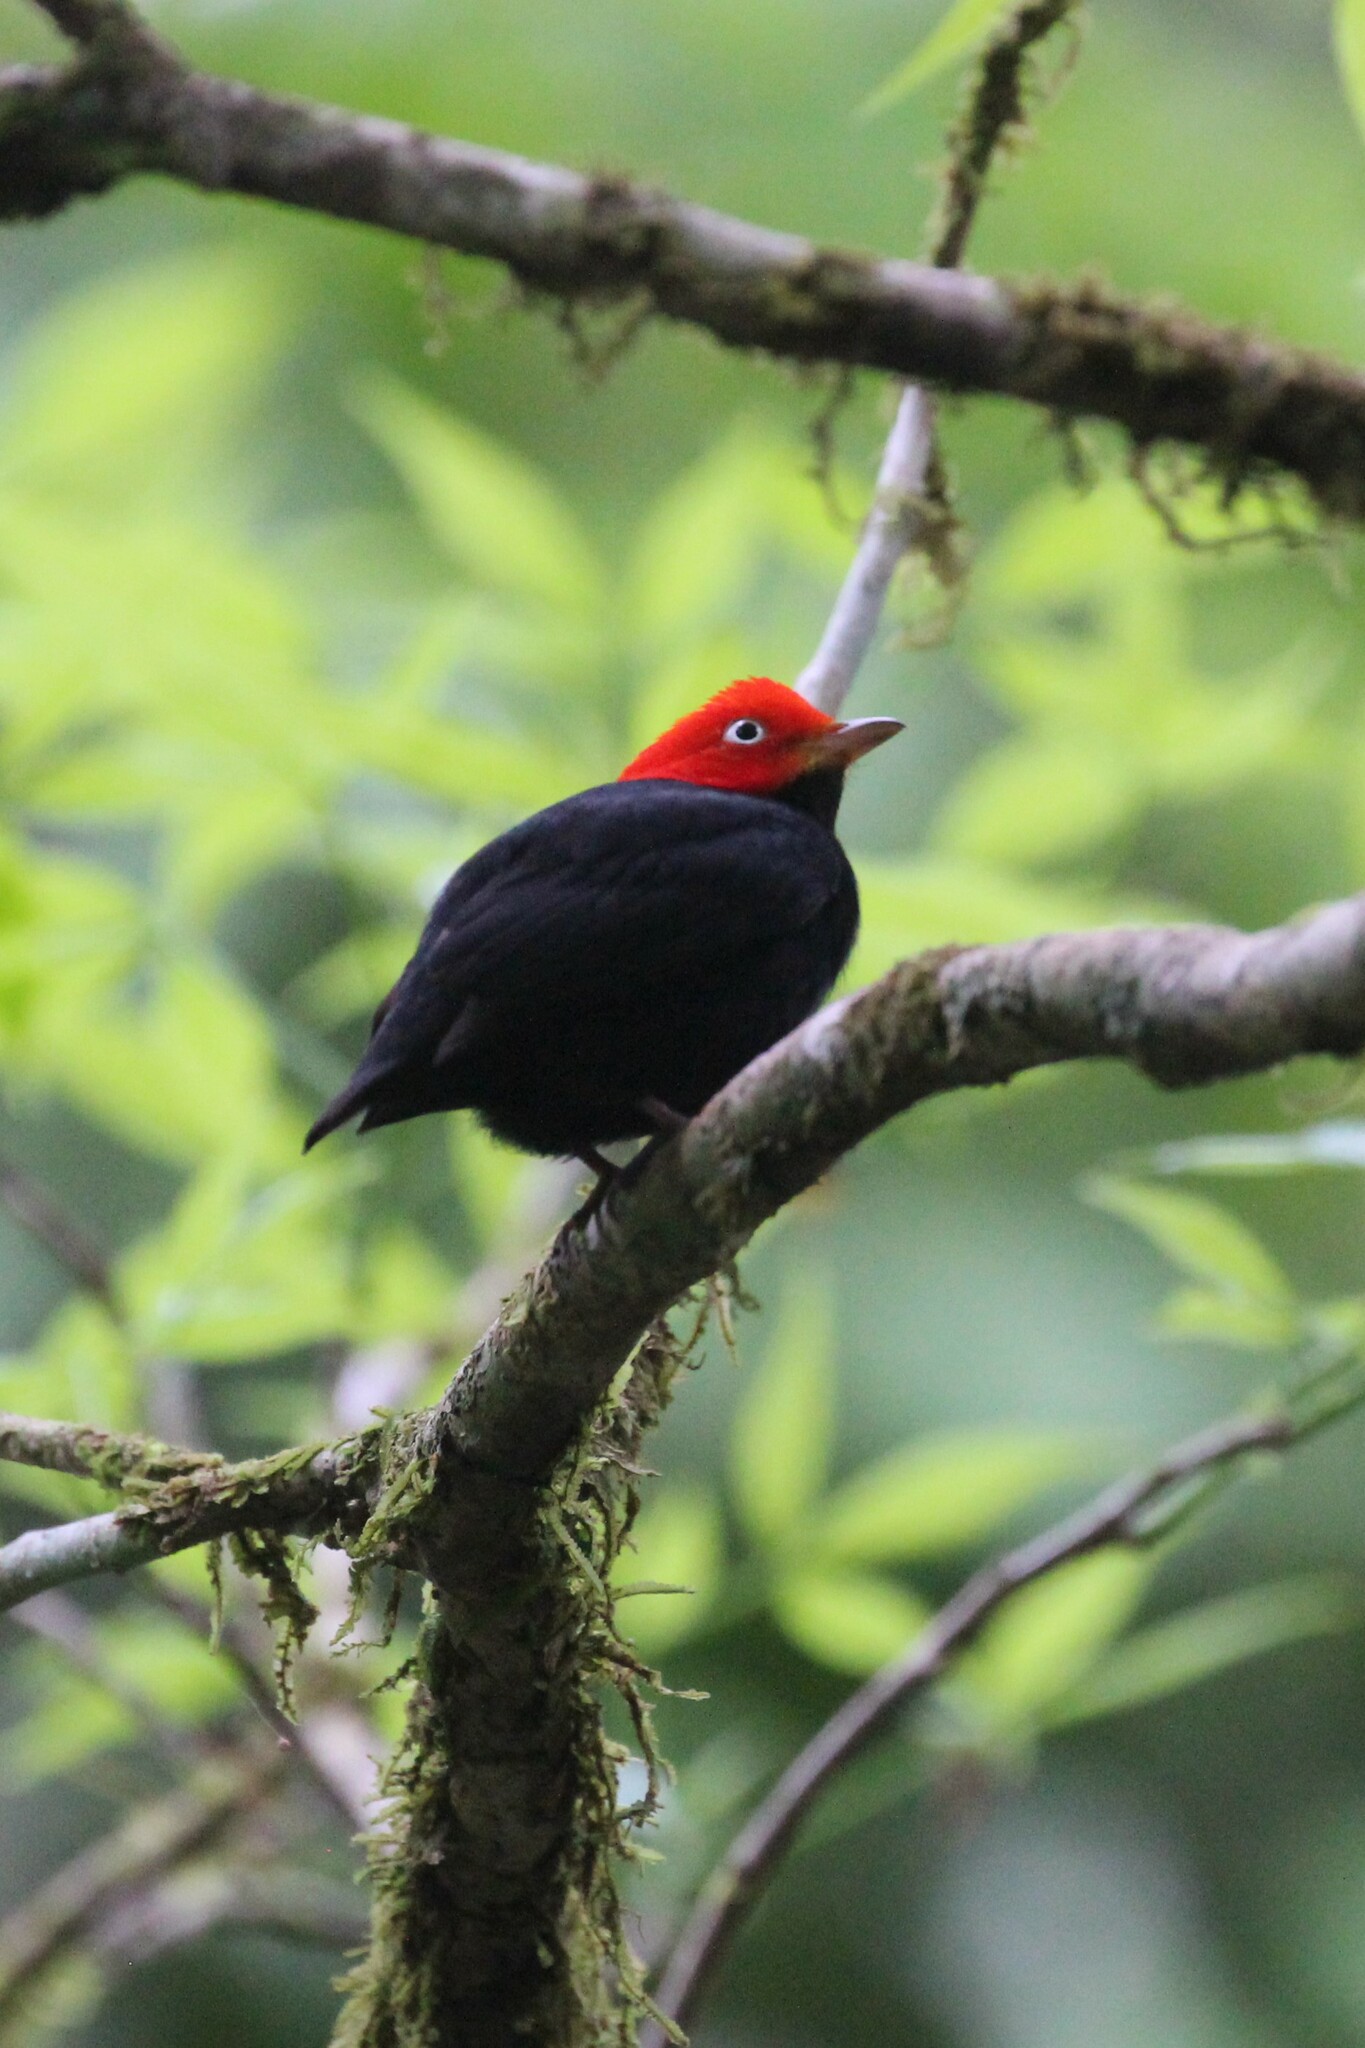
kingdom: Animalia
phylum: Chordata
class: Aves
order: Passeriformes
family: Pipridae
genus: Pipra
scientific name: Pipra mentalis
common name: Red-capped manakin
